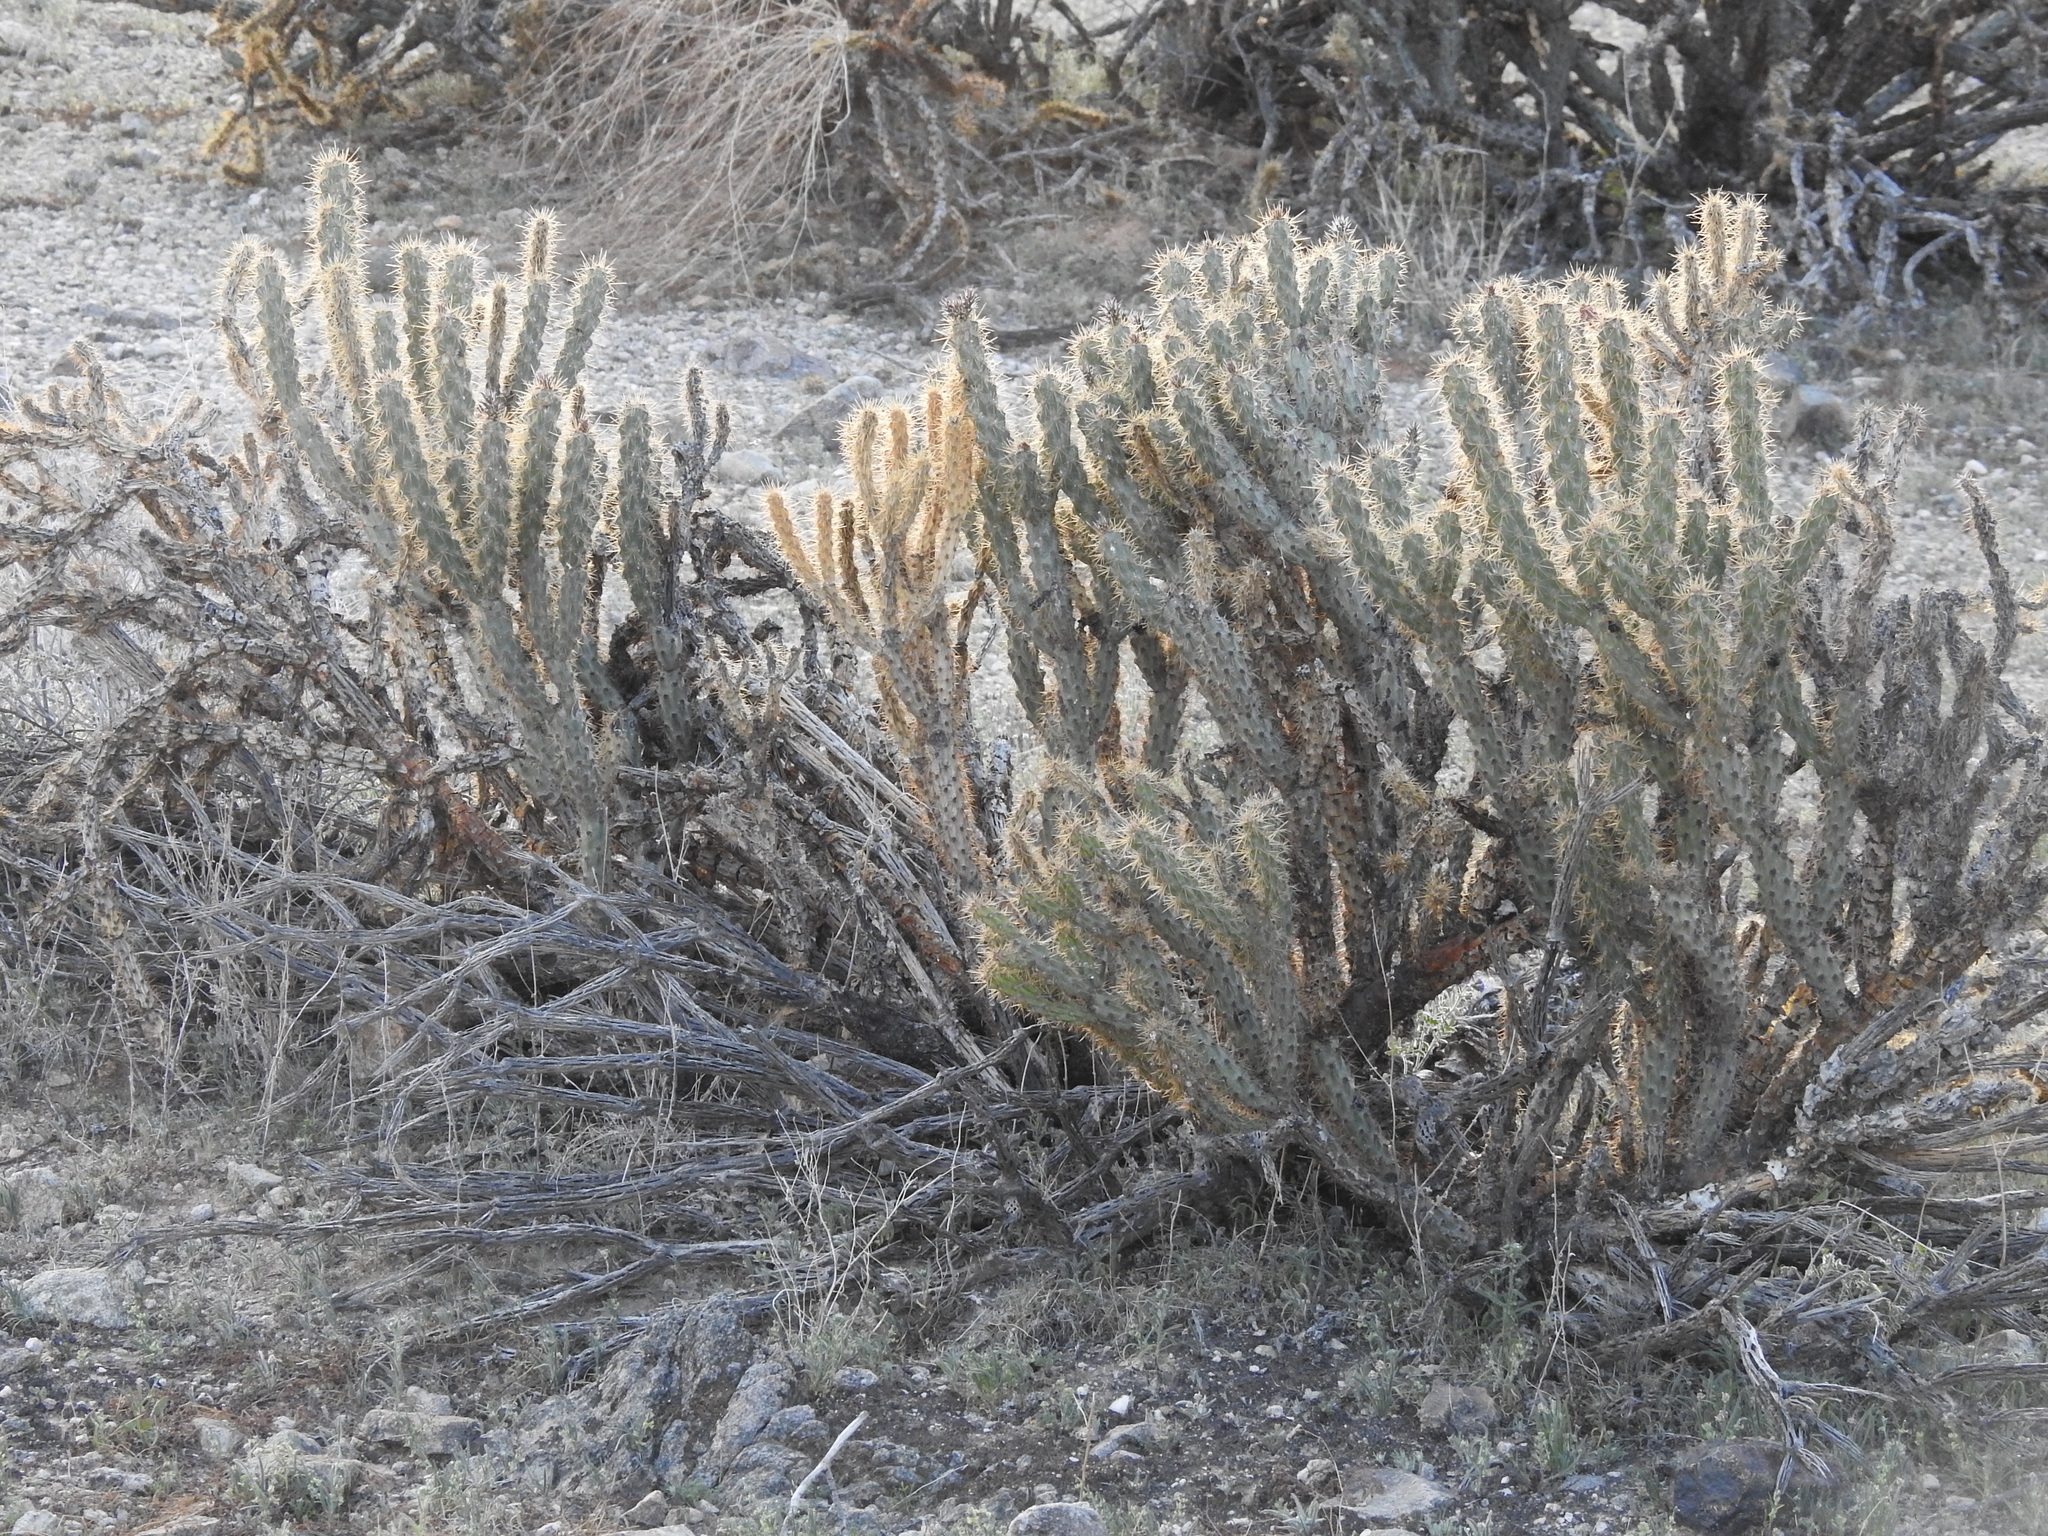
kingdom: Plantae
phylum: Tracheophyta
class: Magnoliopsida
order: Caryophyllales
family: Cactaceae
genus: Cylindropuntia
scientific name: Cylindropuntia acanthocarpa
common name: Buckhorn cholla
